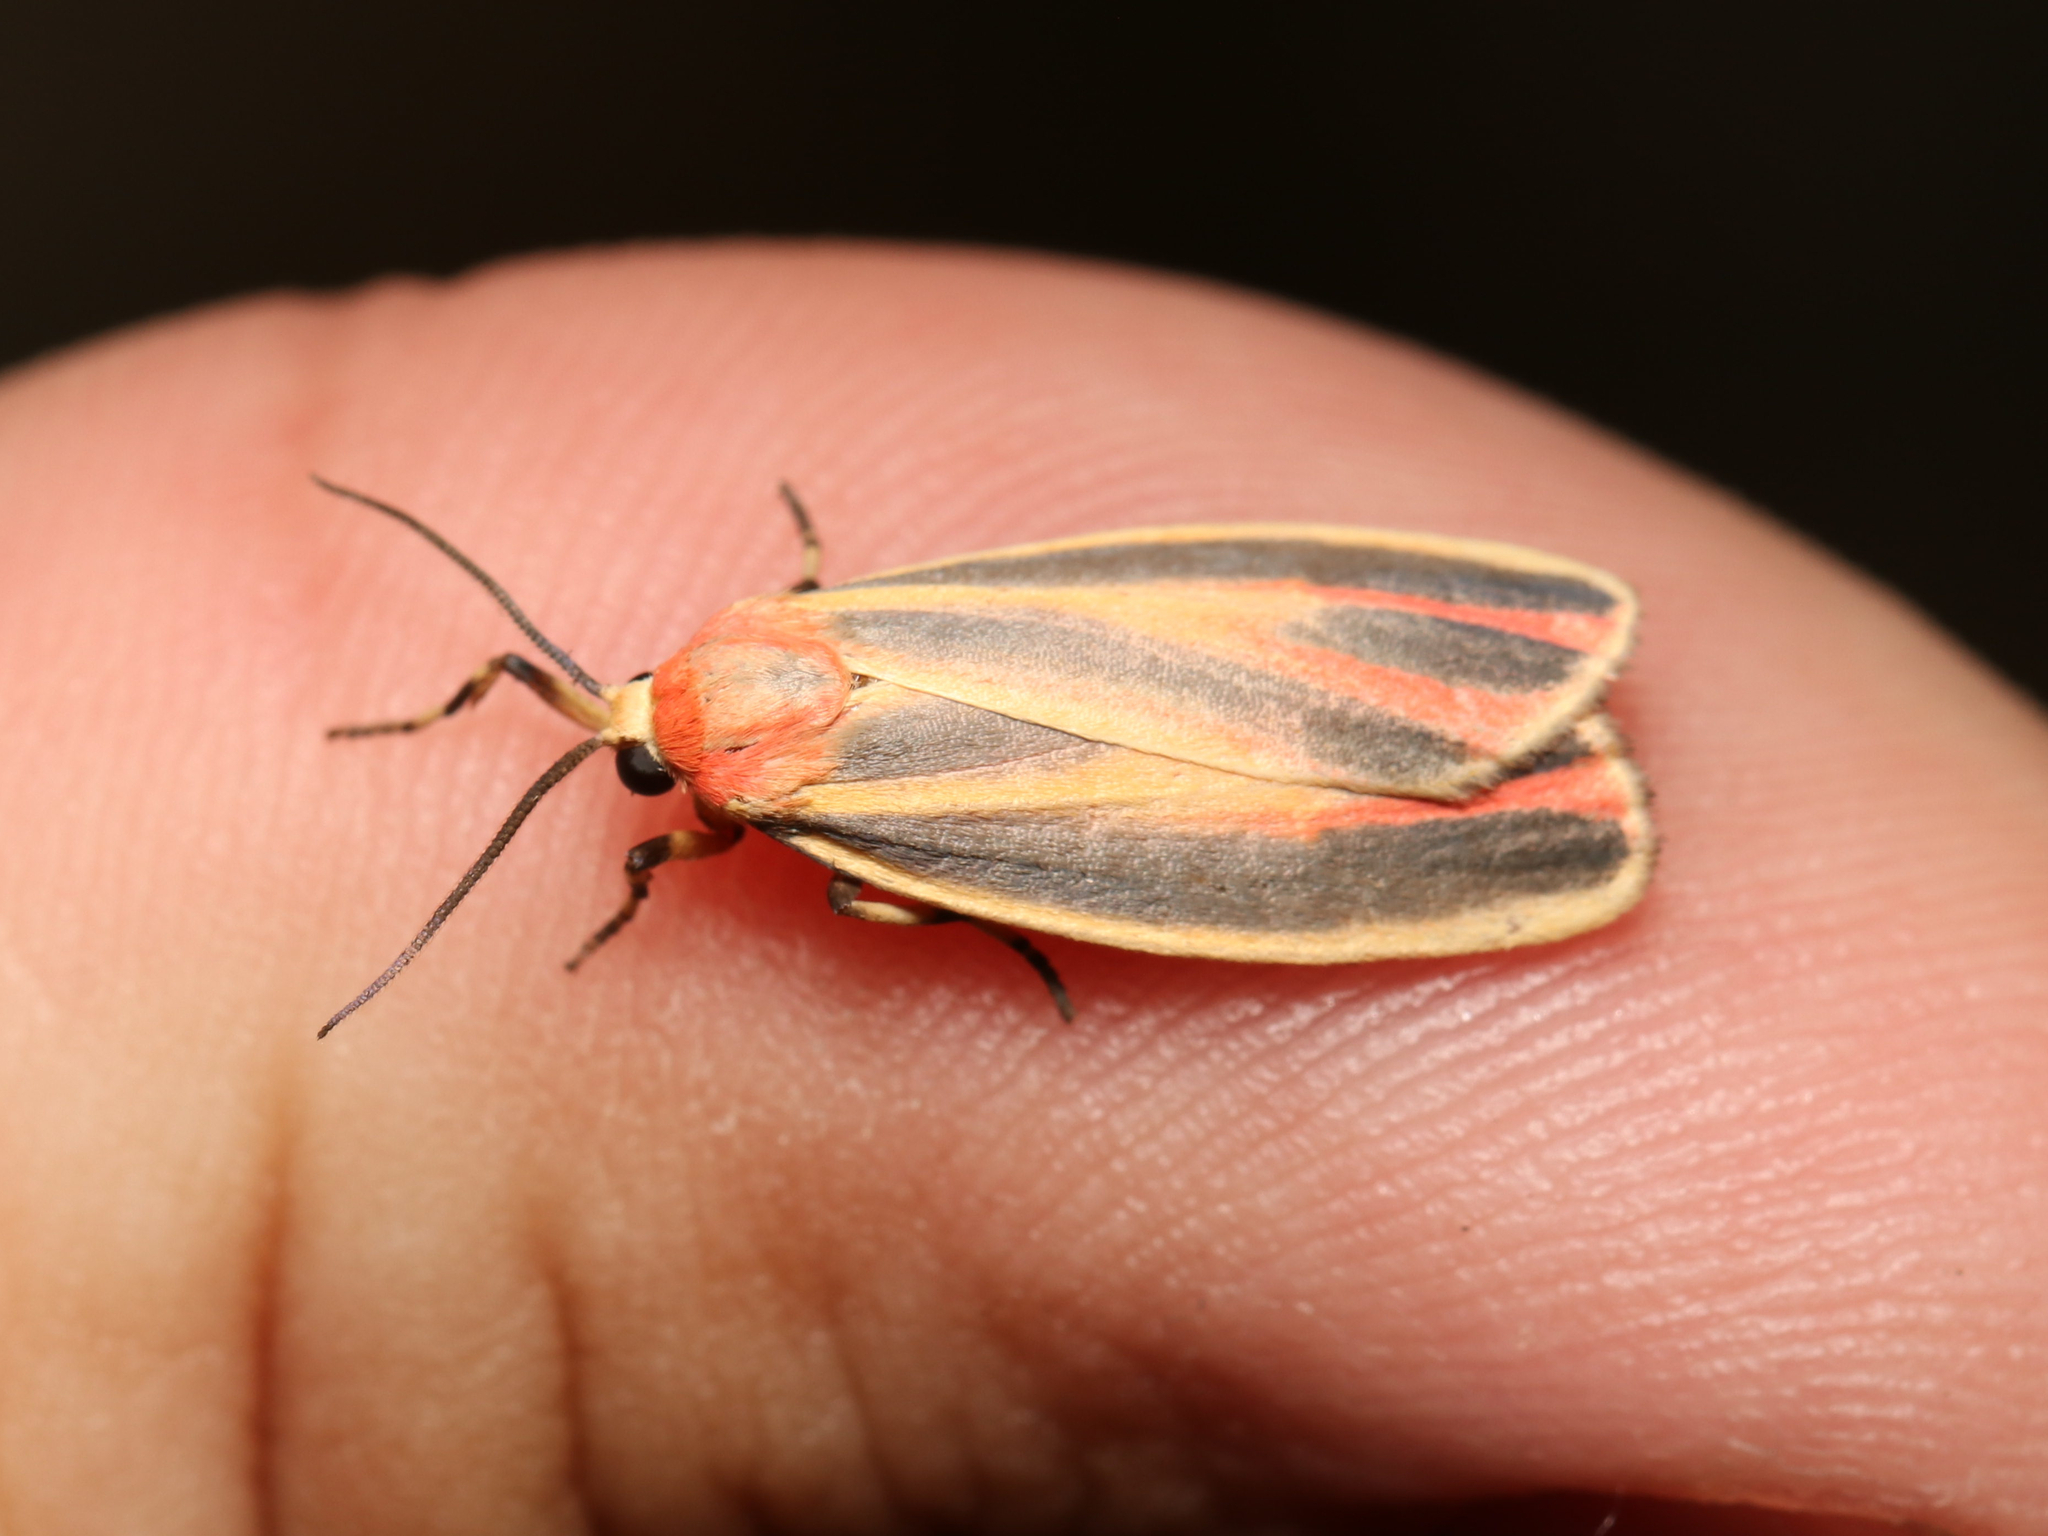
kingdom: Animalia
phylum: Arthropoda
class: Insecta
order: Lepidoptera
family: Erebidae
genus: Hypoprepia
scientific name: Hypoprepia fucosa
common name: Painted lichen moth
